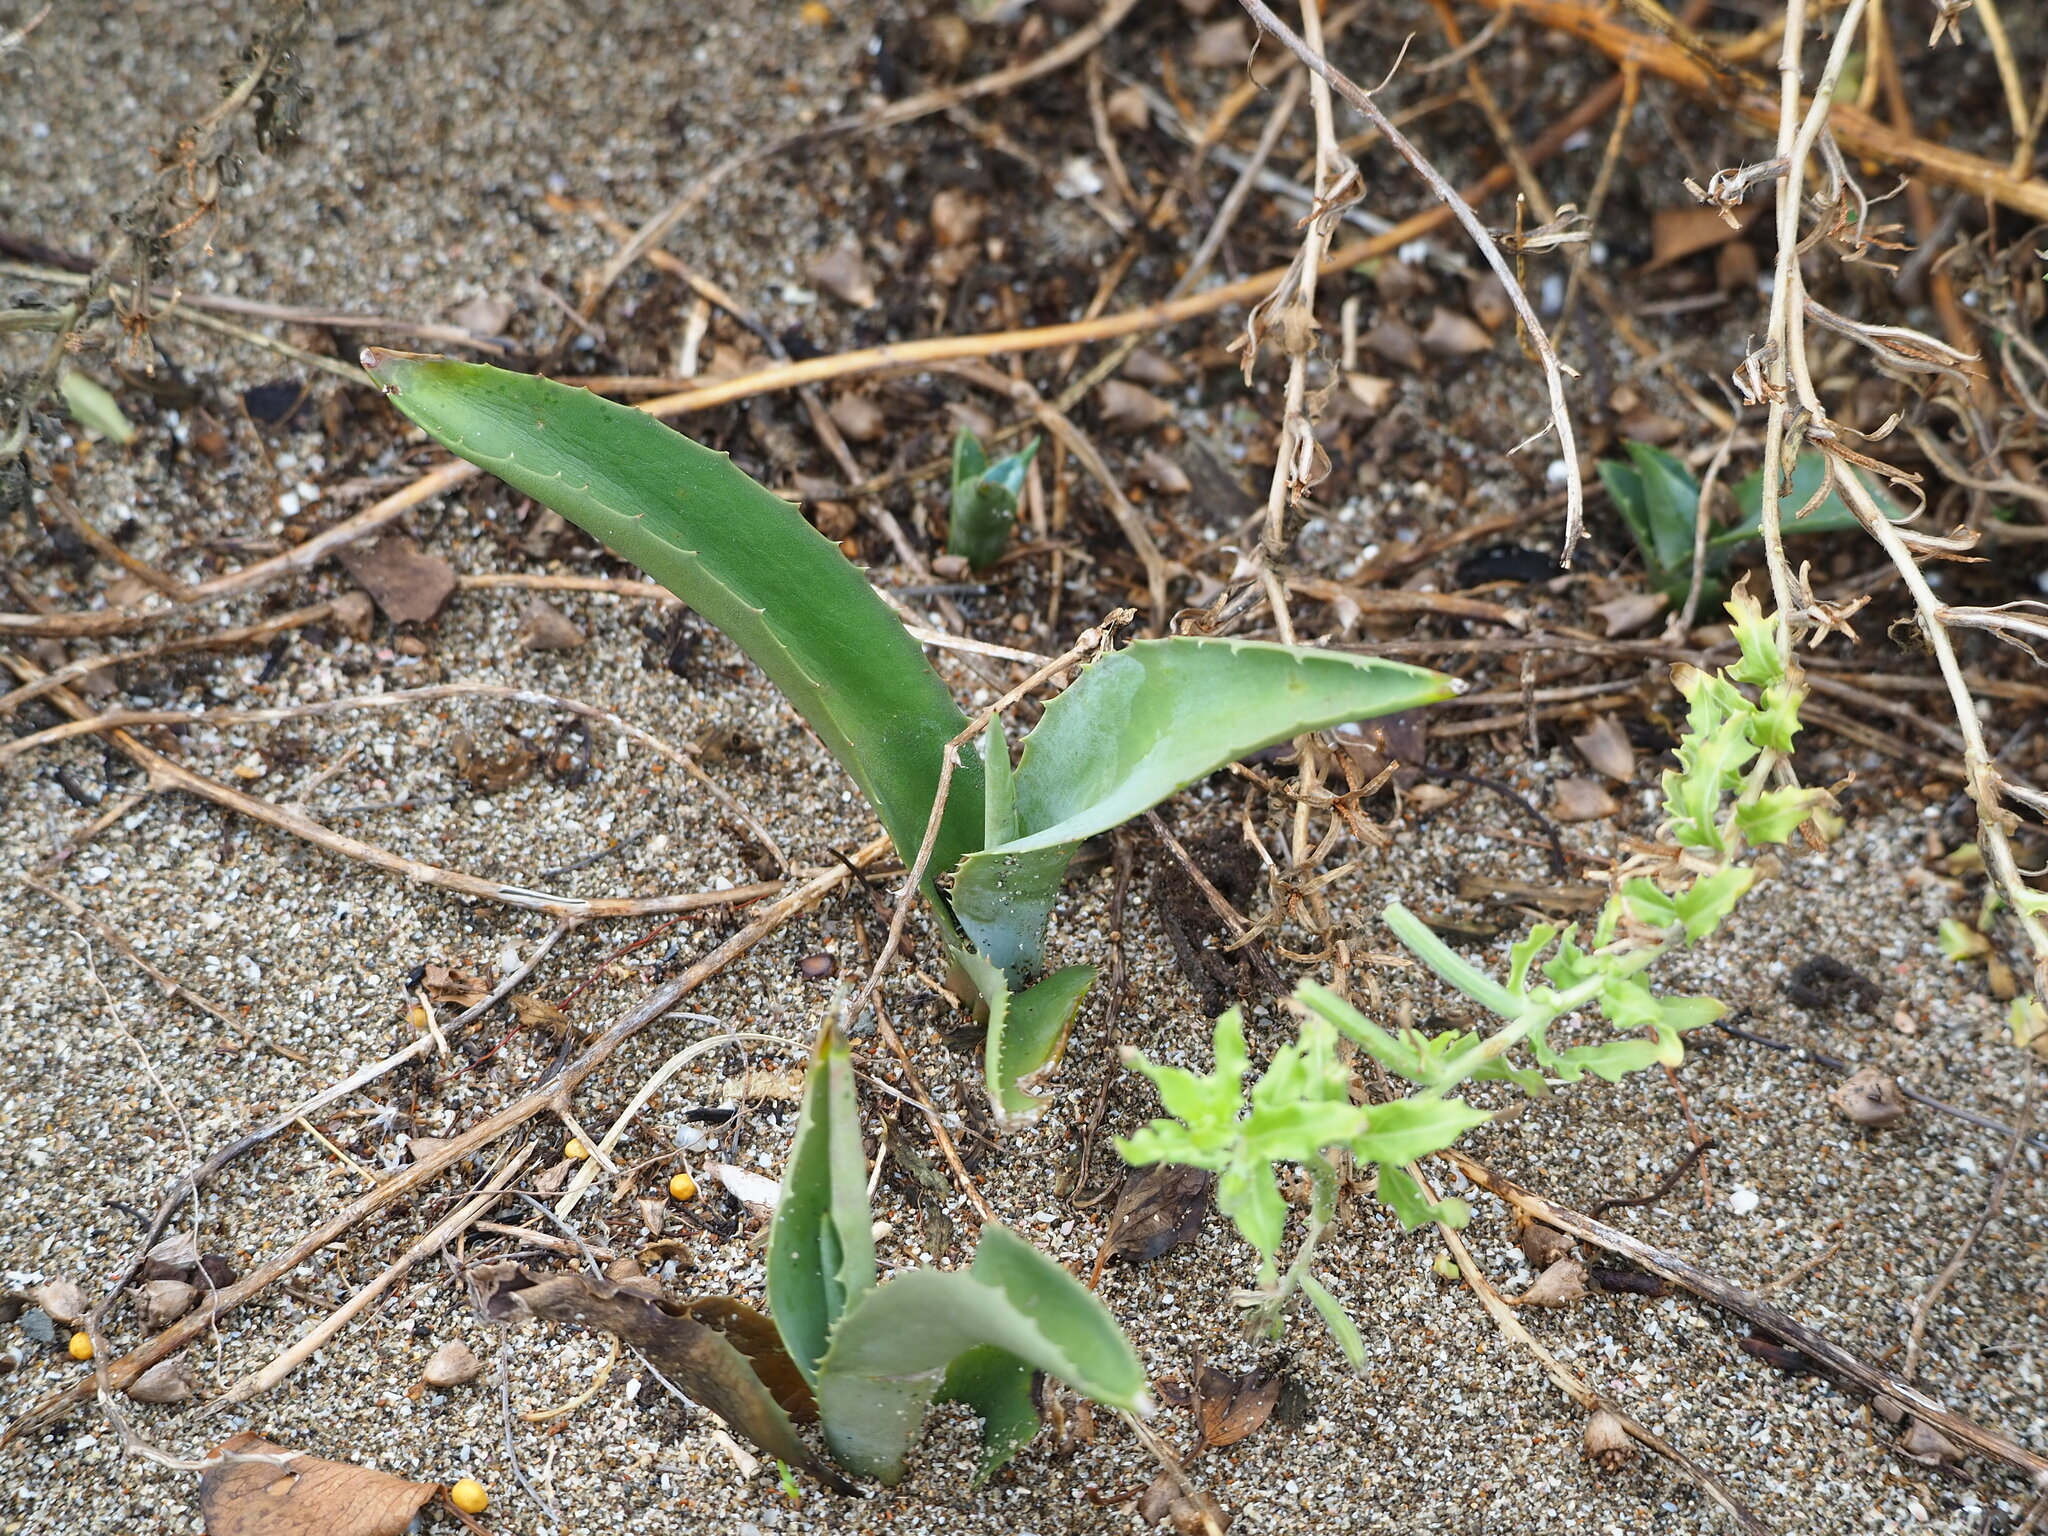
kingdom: Plantae
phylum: Tracheophyta
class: Liliopsida
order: Asparagales
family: Asparagaceae
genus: Agave
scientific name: Agave americana
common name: Centuryplant
